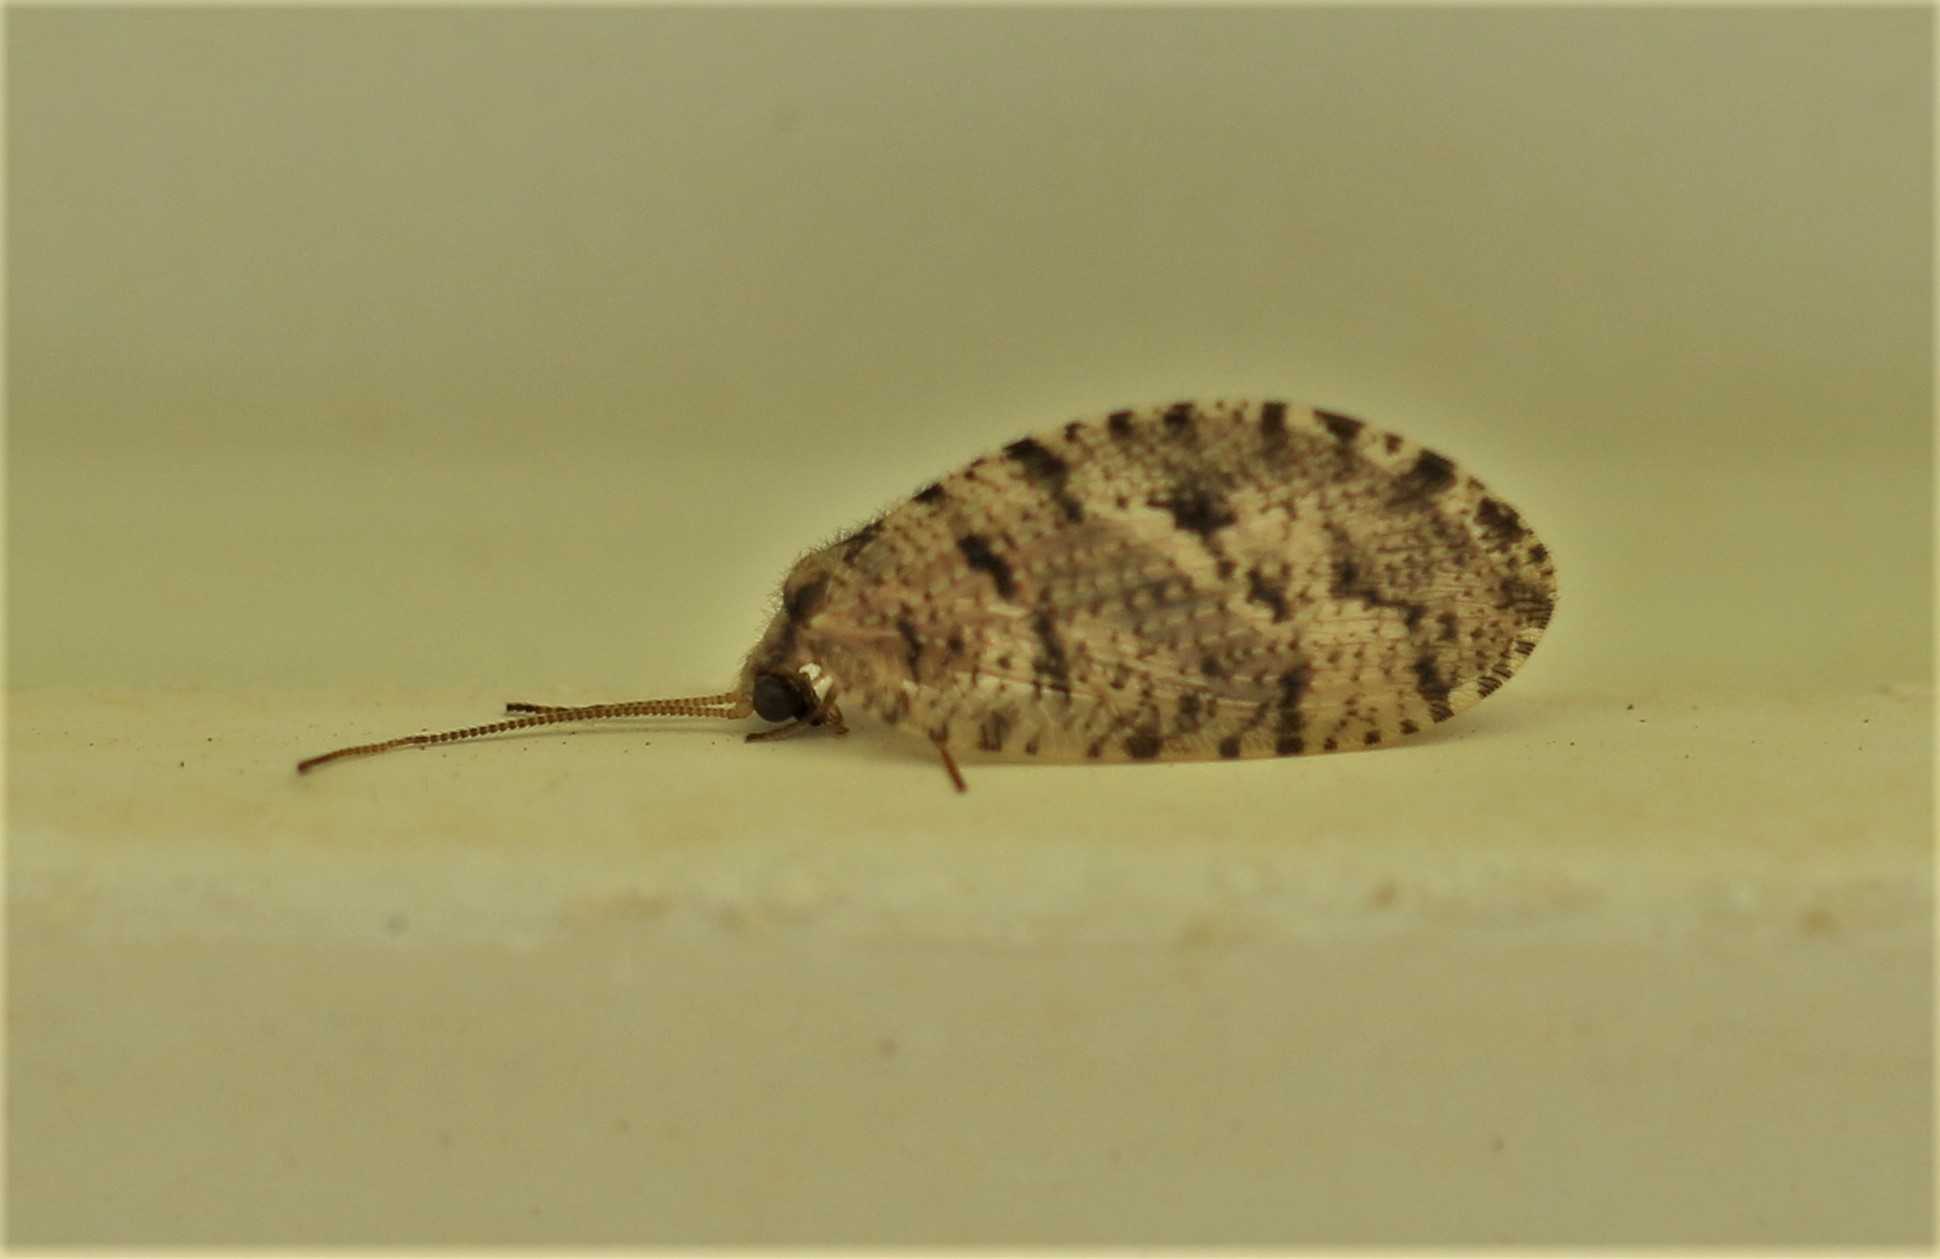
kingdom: Animalia
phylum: Arthropoda
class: Insecta
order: Neuroptera
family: Hemerobiidae
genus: Wesmaelius
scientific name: Wesmaelius longifrons
